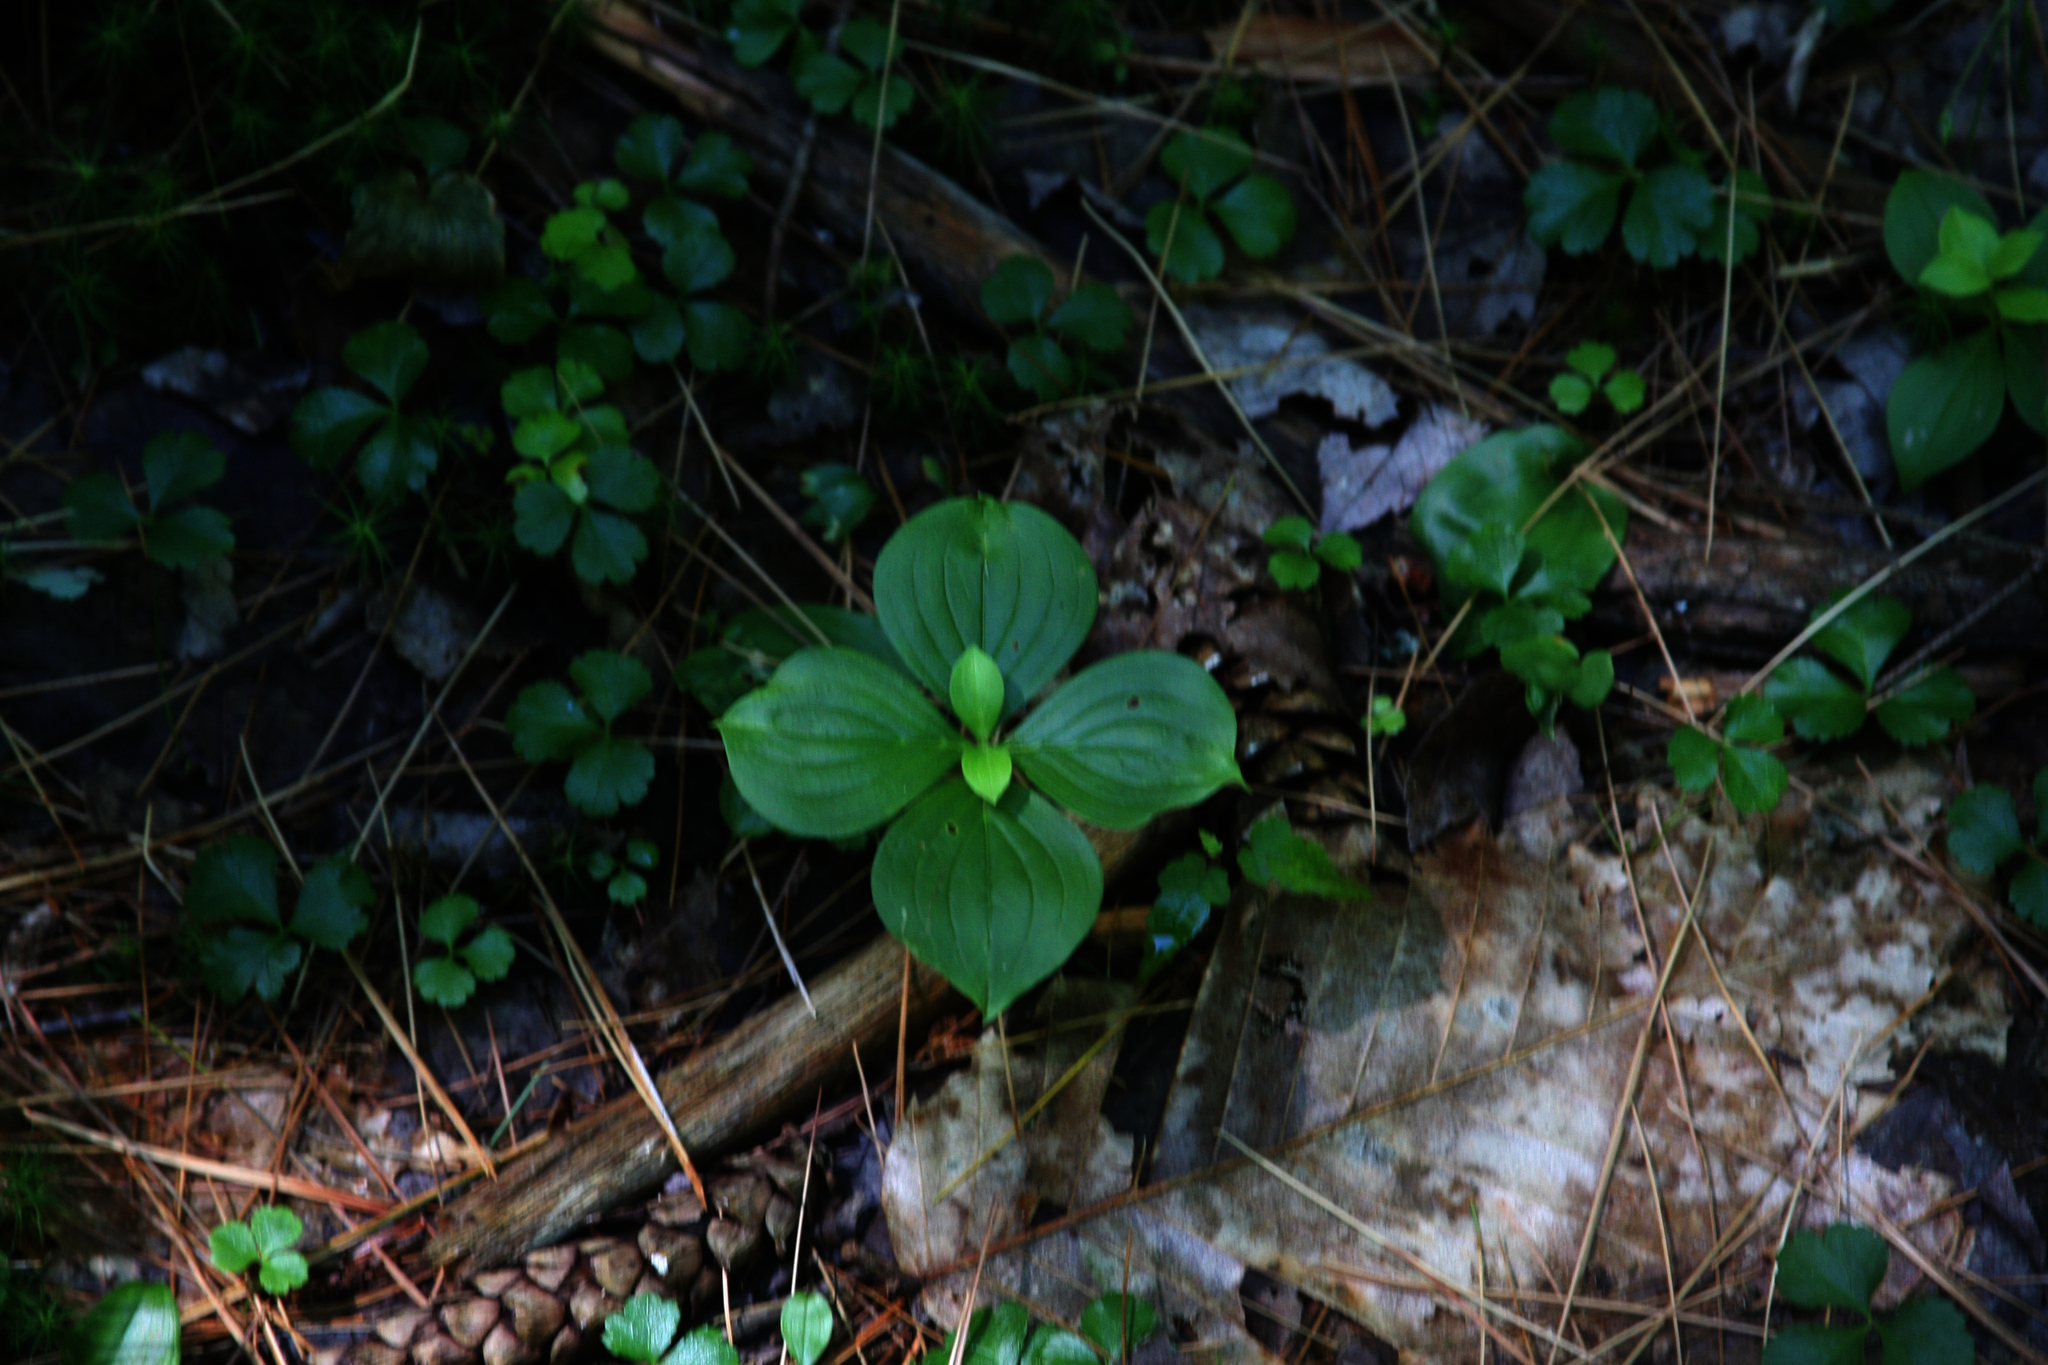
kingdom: Plantae
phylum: Tracheophyta
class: Magnoliopsida
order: Cornales
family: Cornaceae
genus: Cornus
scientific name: Cornus canadensis
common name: Creeping dogwood
